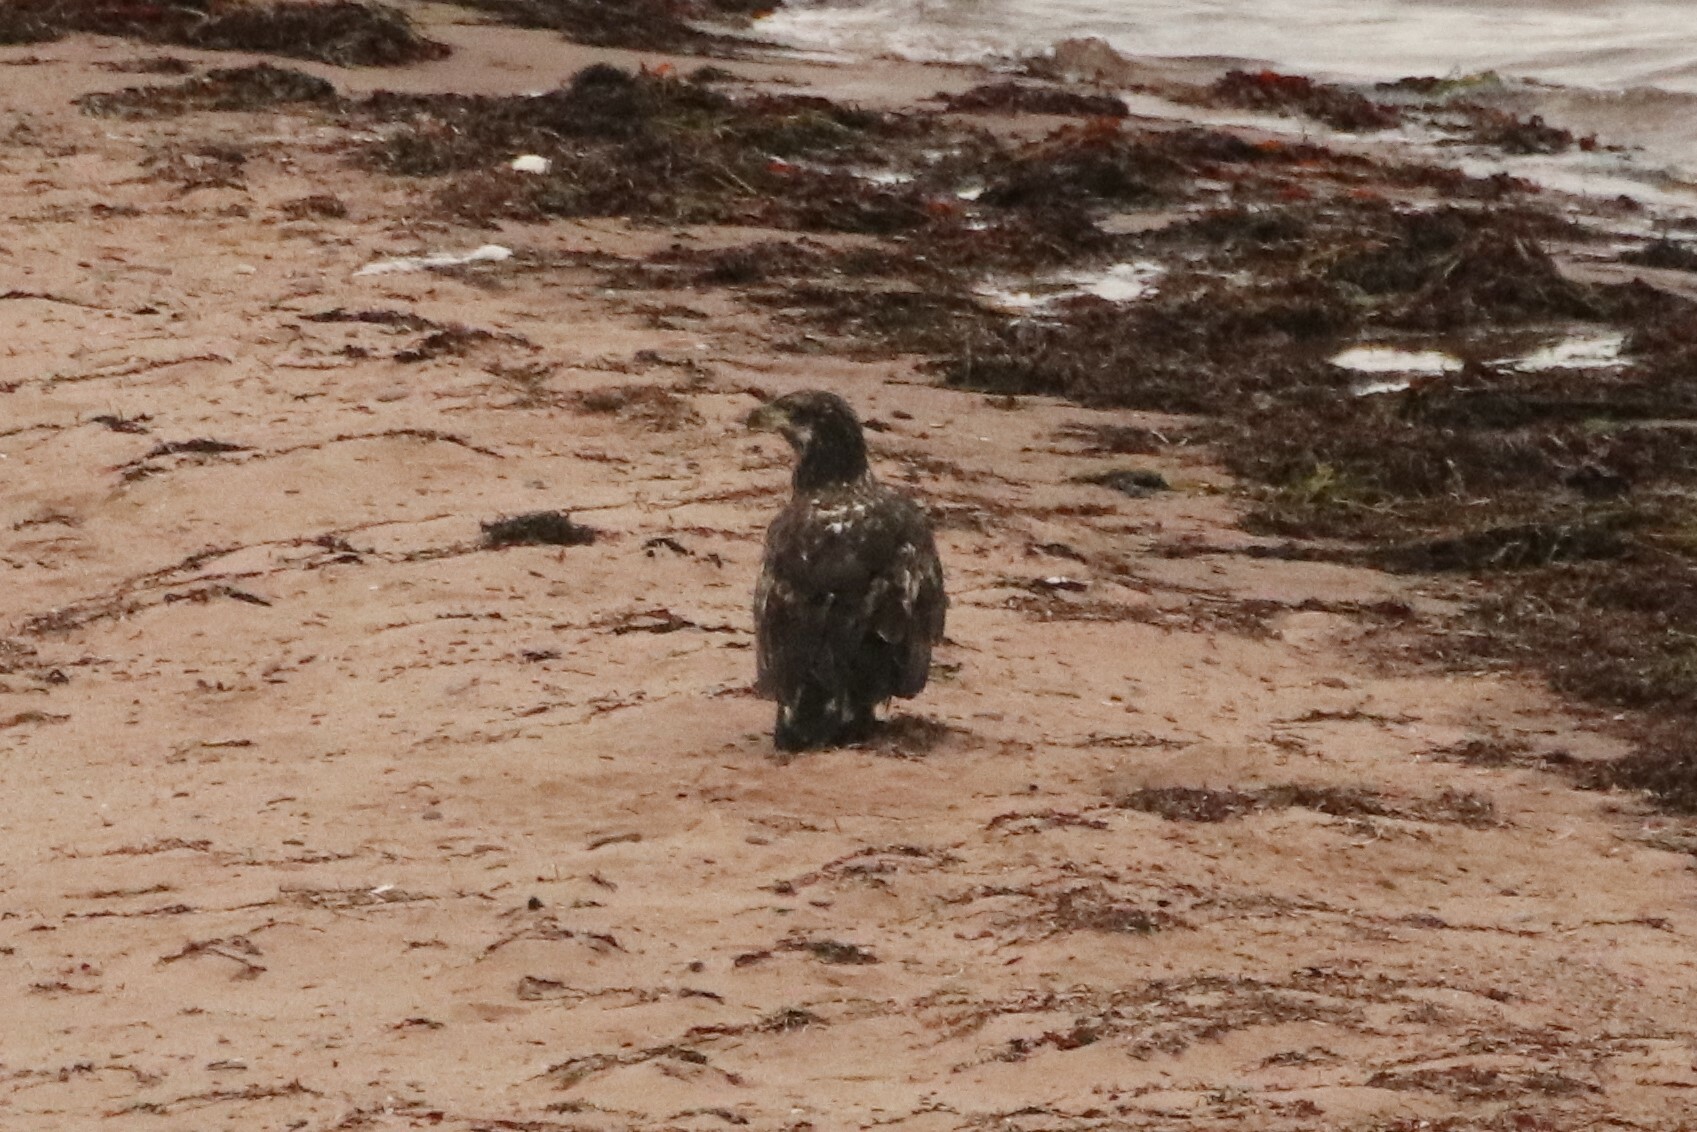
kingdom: Animalia
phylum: Chordata
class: Aves
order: Accipitriformes
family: Accipitridae
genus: Haliaeetus
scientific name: Haliaeetus leucocephalus
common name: Bald eagle
